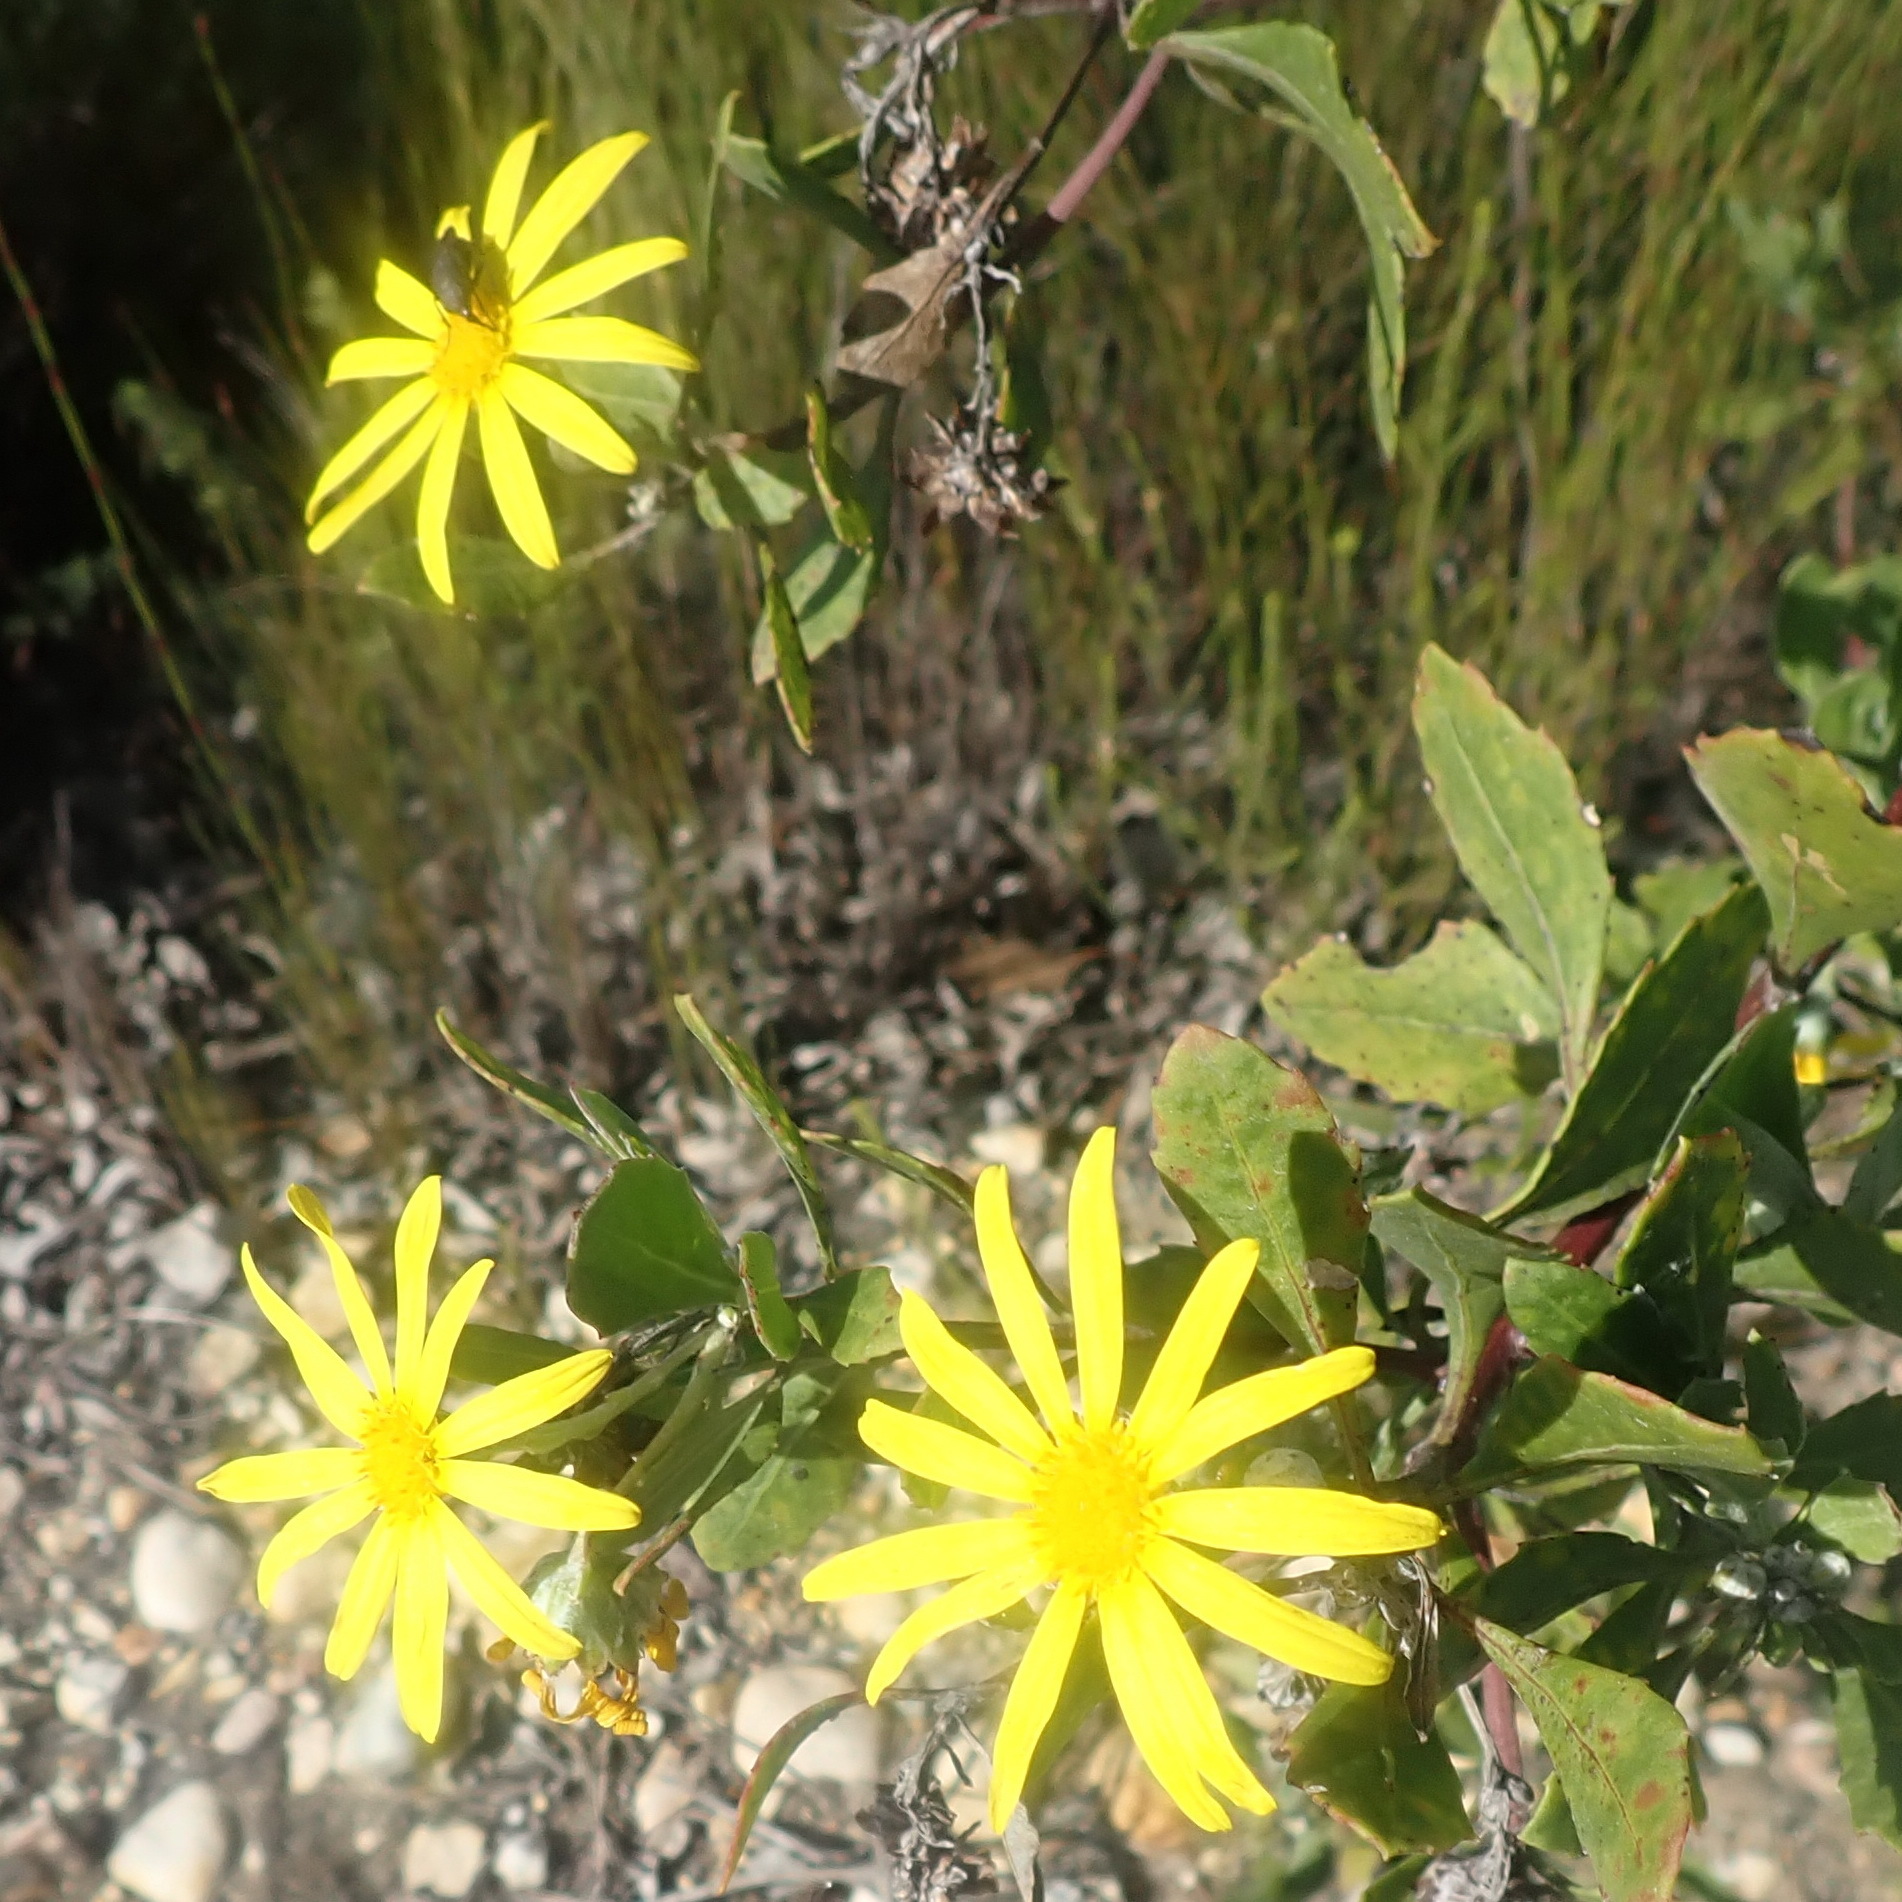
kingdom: Plantae
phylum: Tracheophyta
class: Magnoliopsida
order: Asterales
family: Asteraceae
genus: Osteospermum
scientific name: Osteospermum moniliferum
